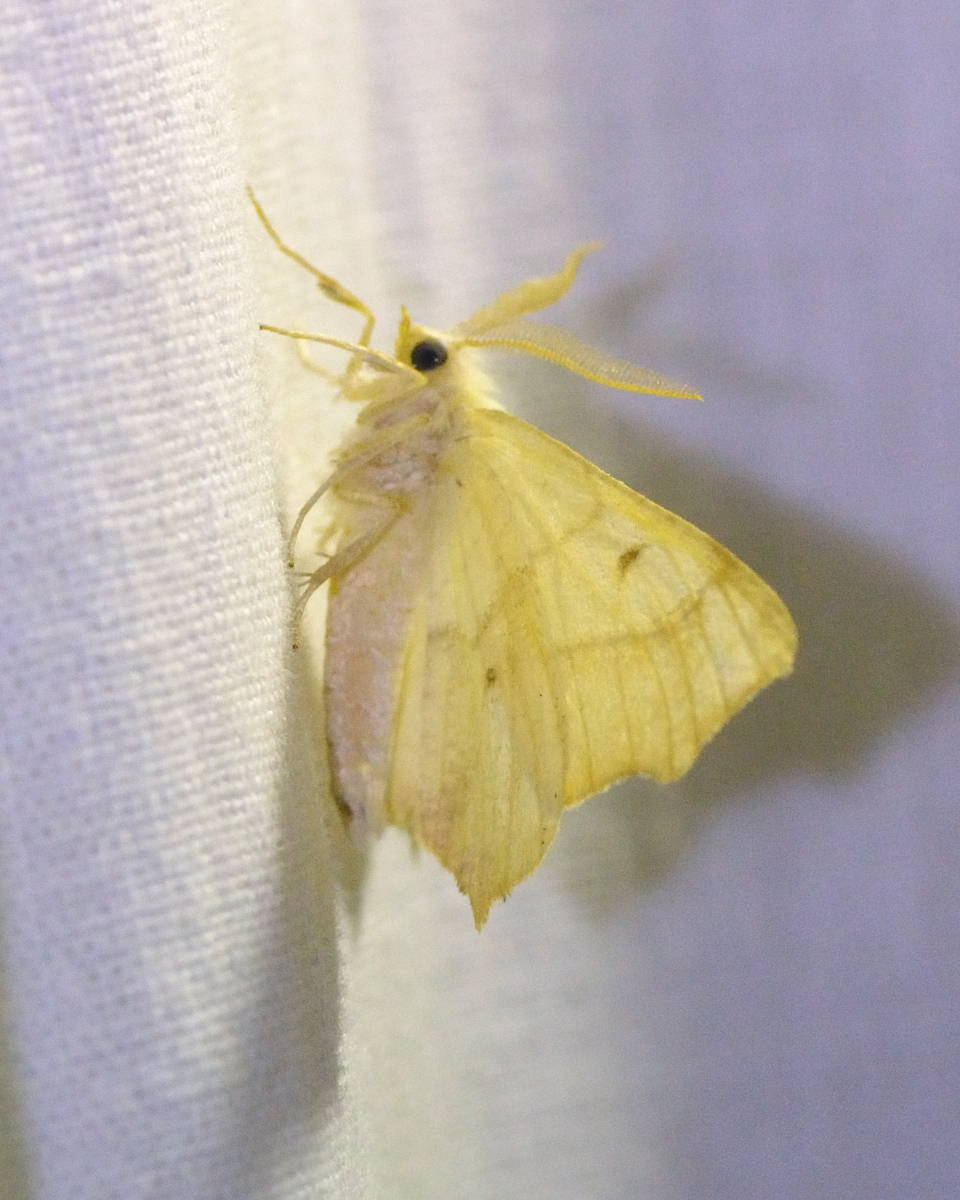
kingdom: Animalia
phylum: Arthropoda
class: Insecta
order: Lepidoptera
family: Geometridae
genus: Ennomos
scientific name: Ennomos quercinaria
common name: August thorn
